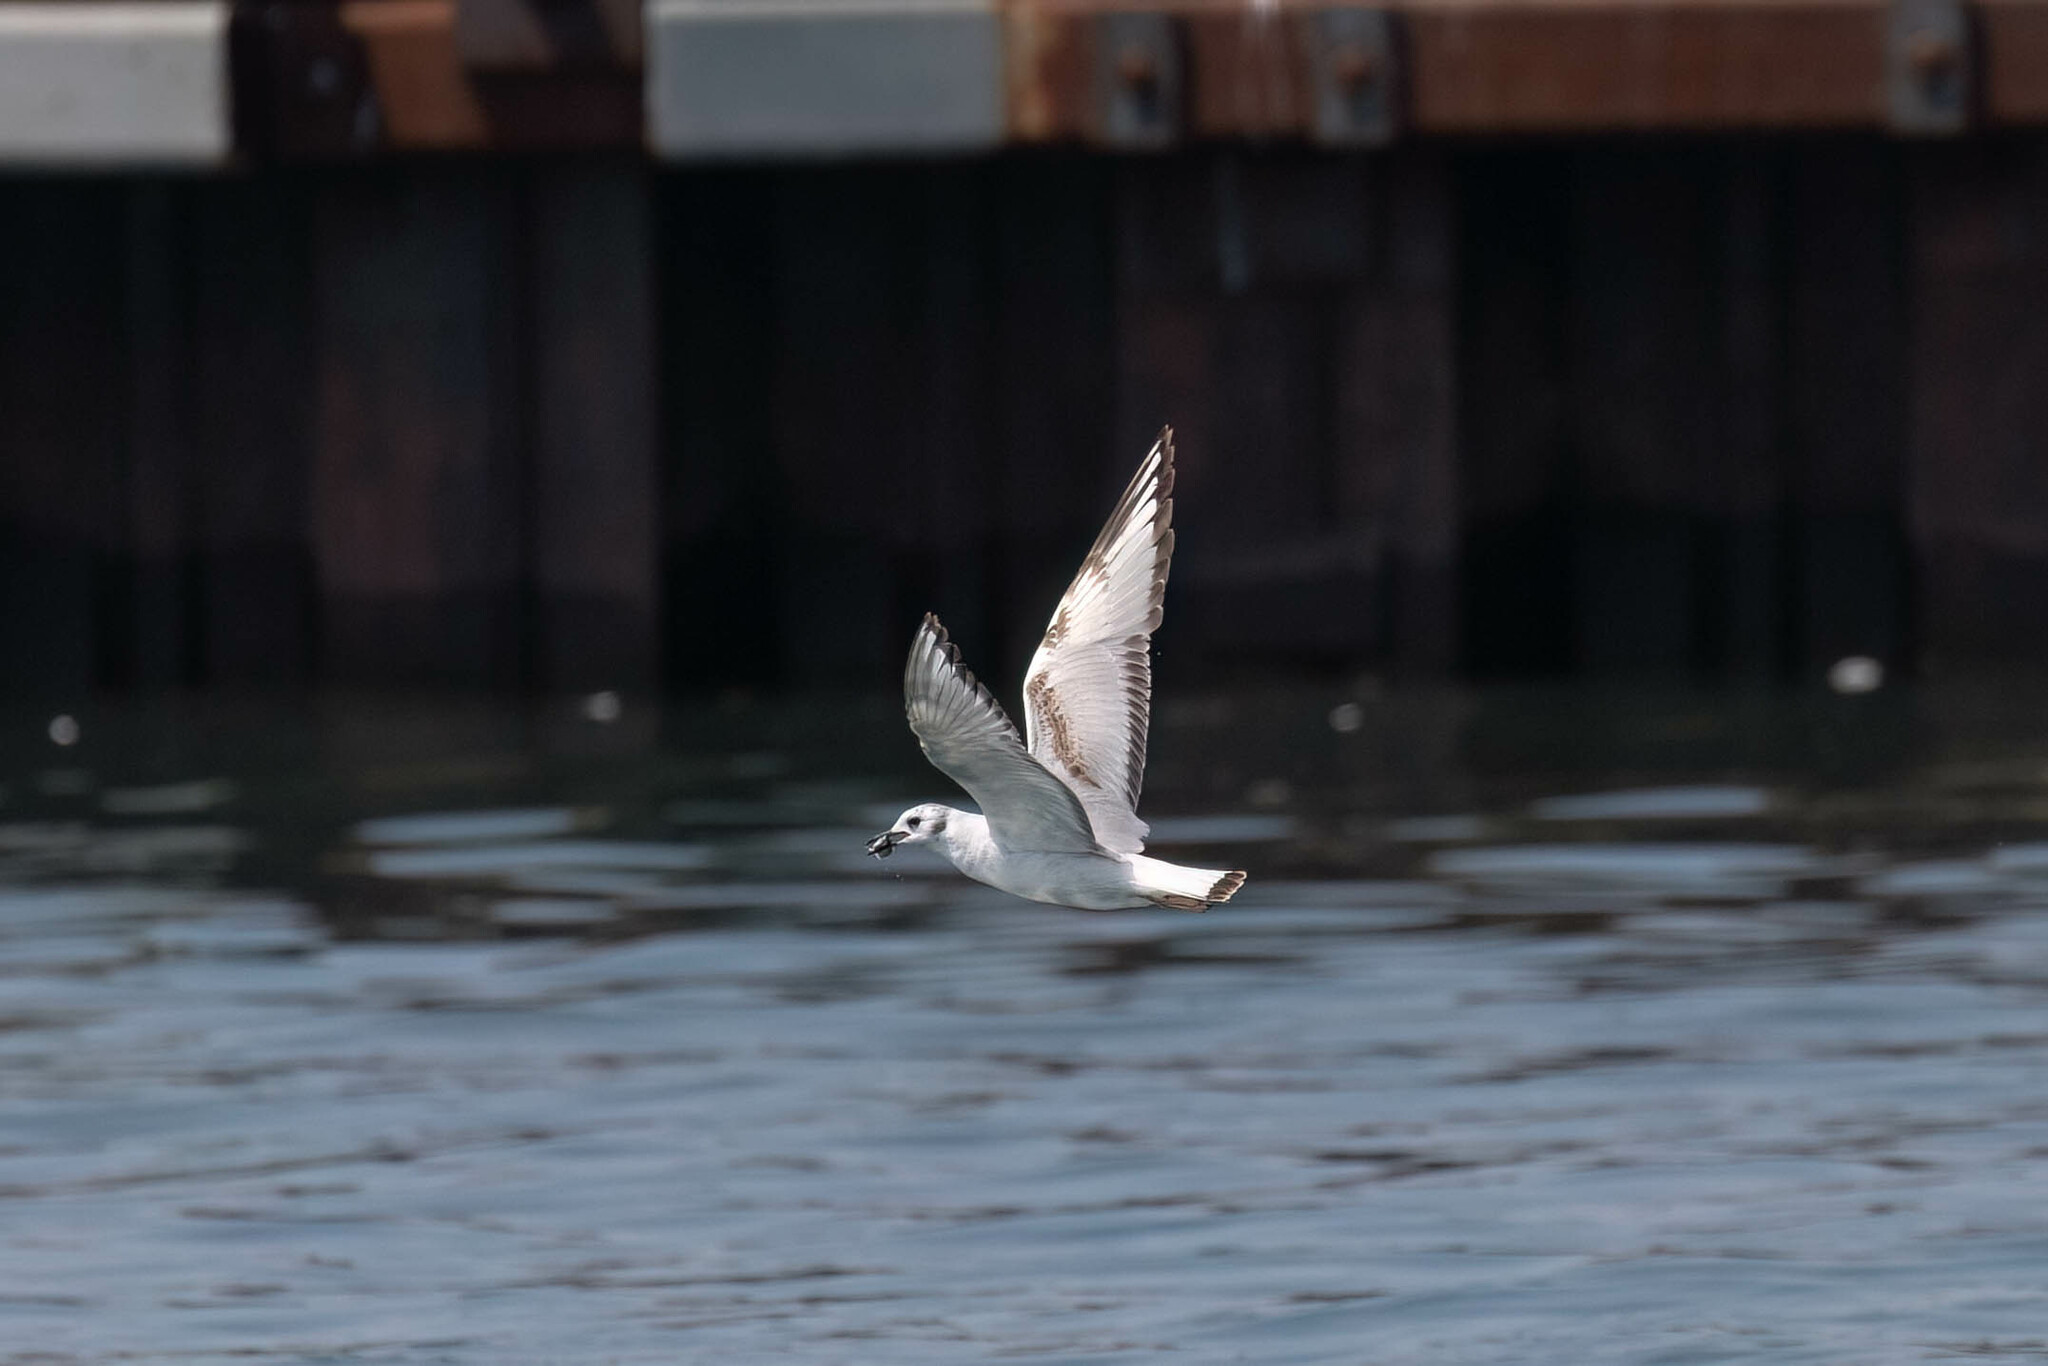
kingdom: Animalia
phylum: Chordata
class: Aves
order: Charadriiformes
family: Laridae
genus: Chroicocephalus
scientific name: Chroicocephalus philadelphia
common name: Bonaparte's gull
